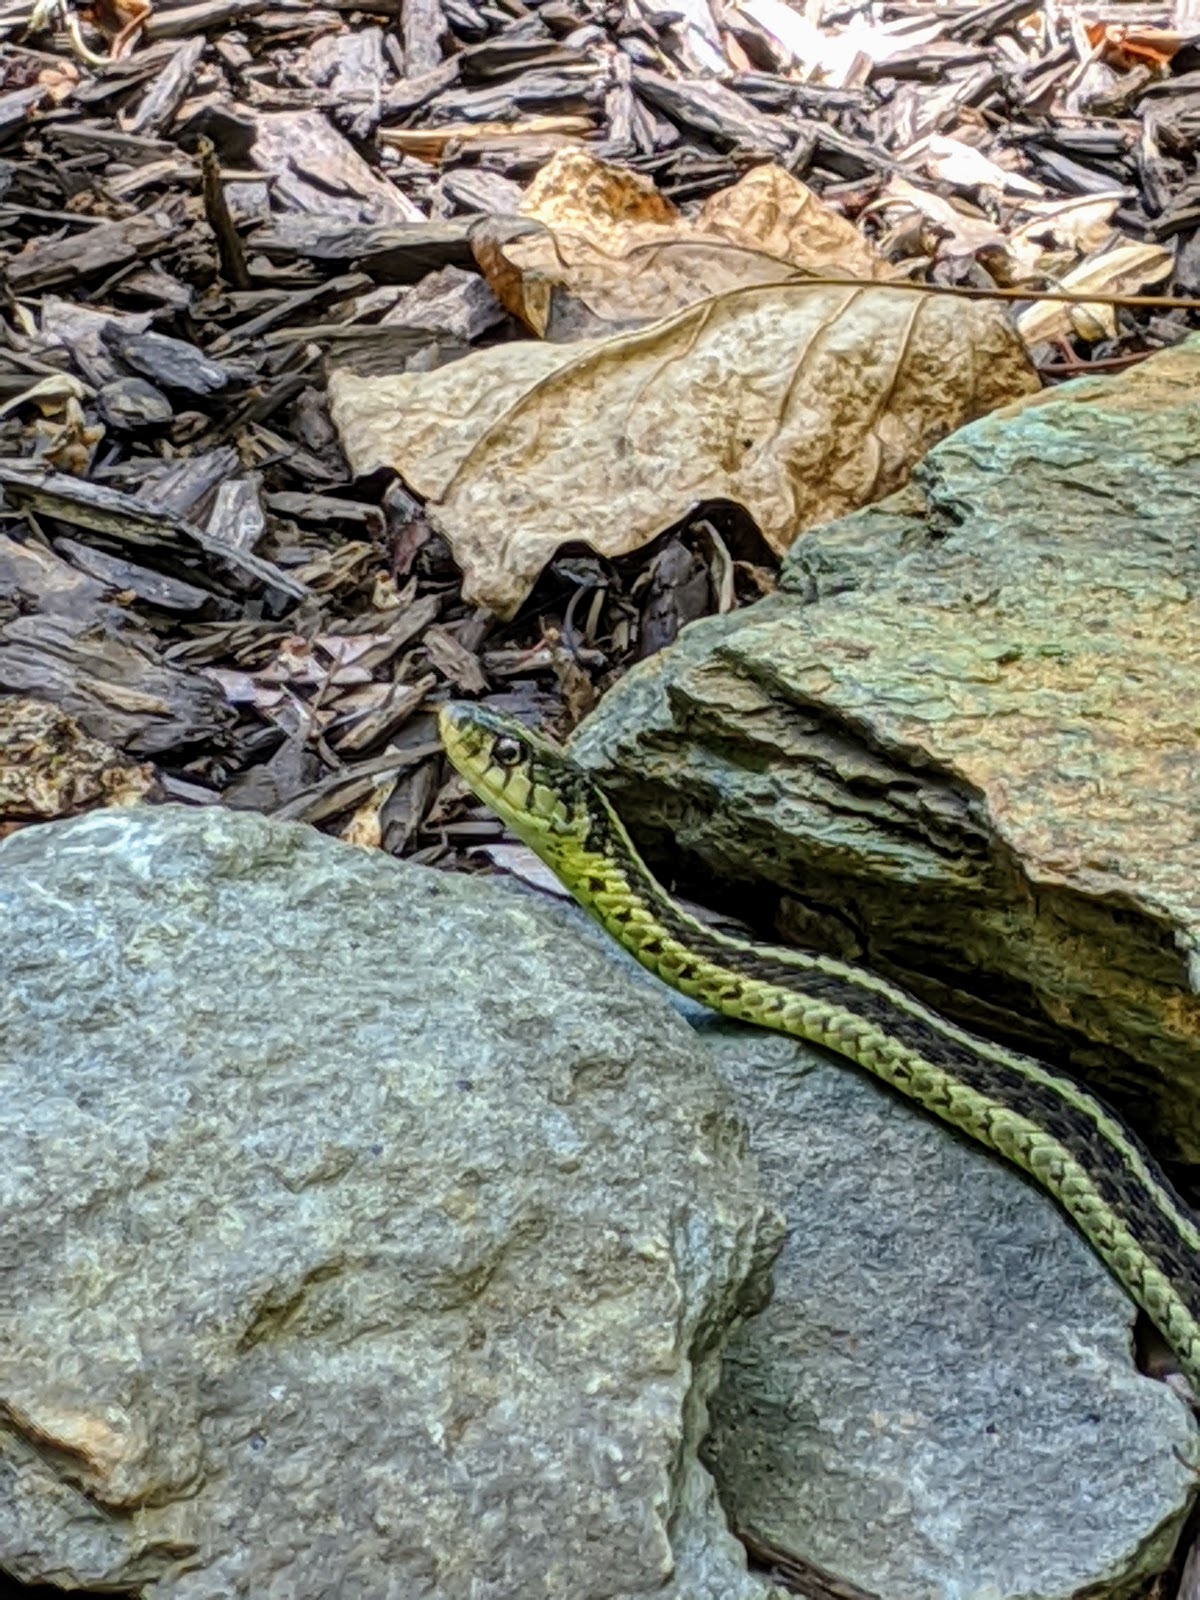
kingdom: Animalia
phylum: Chordata
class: Squamata
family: Colubridae
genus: Thamnophis
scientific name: Thamnophis sirtalis
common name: Common garter snake
